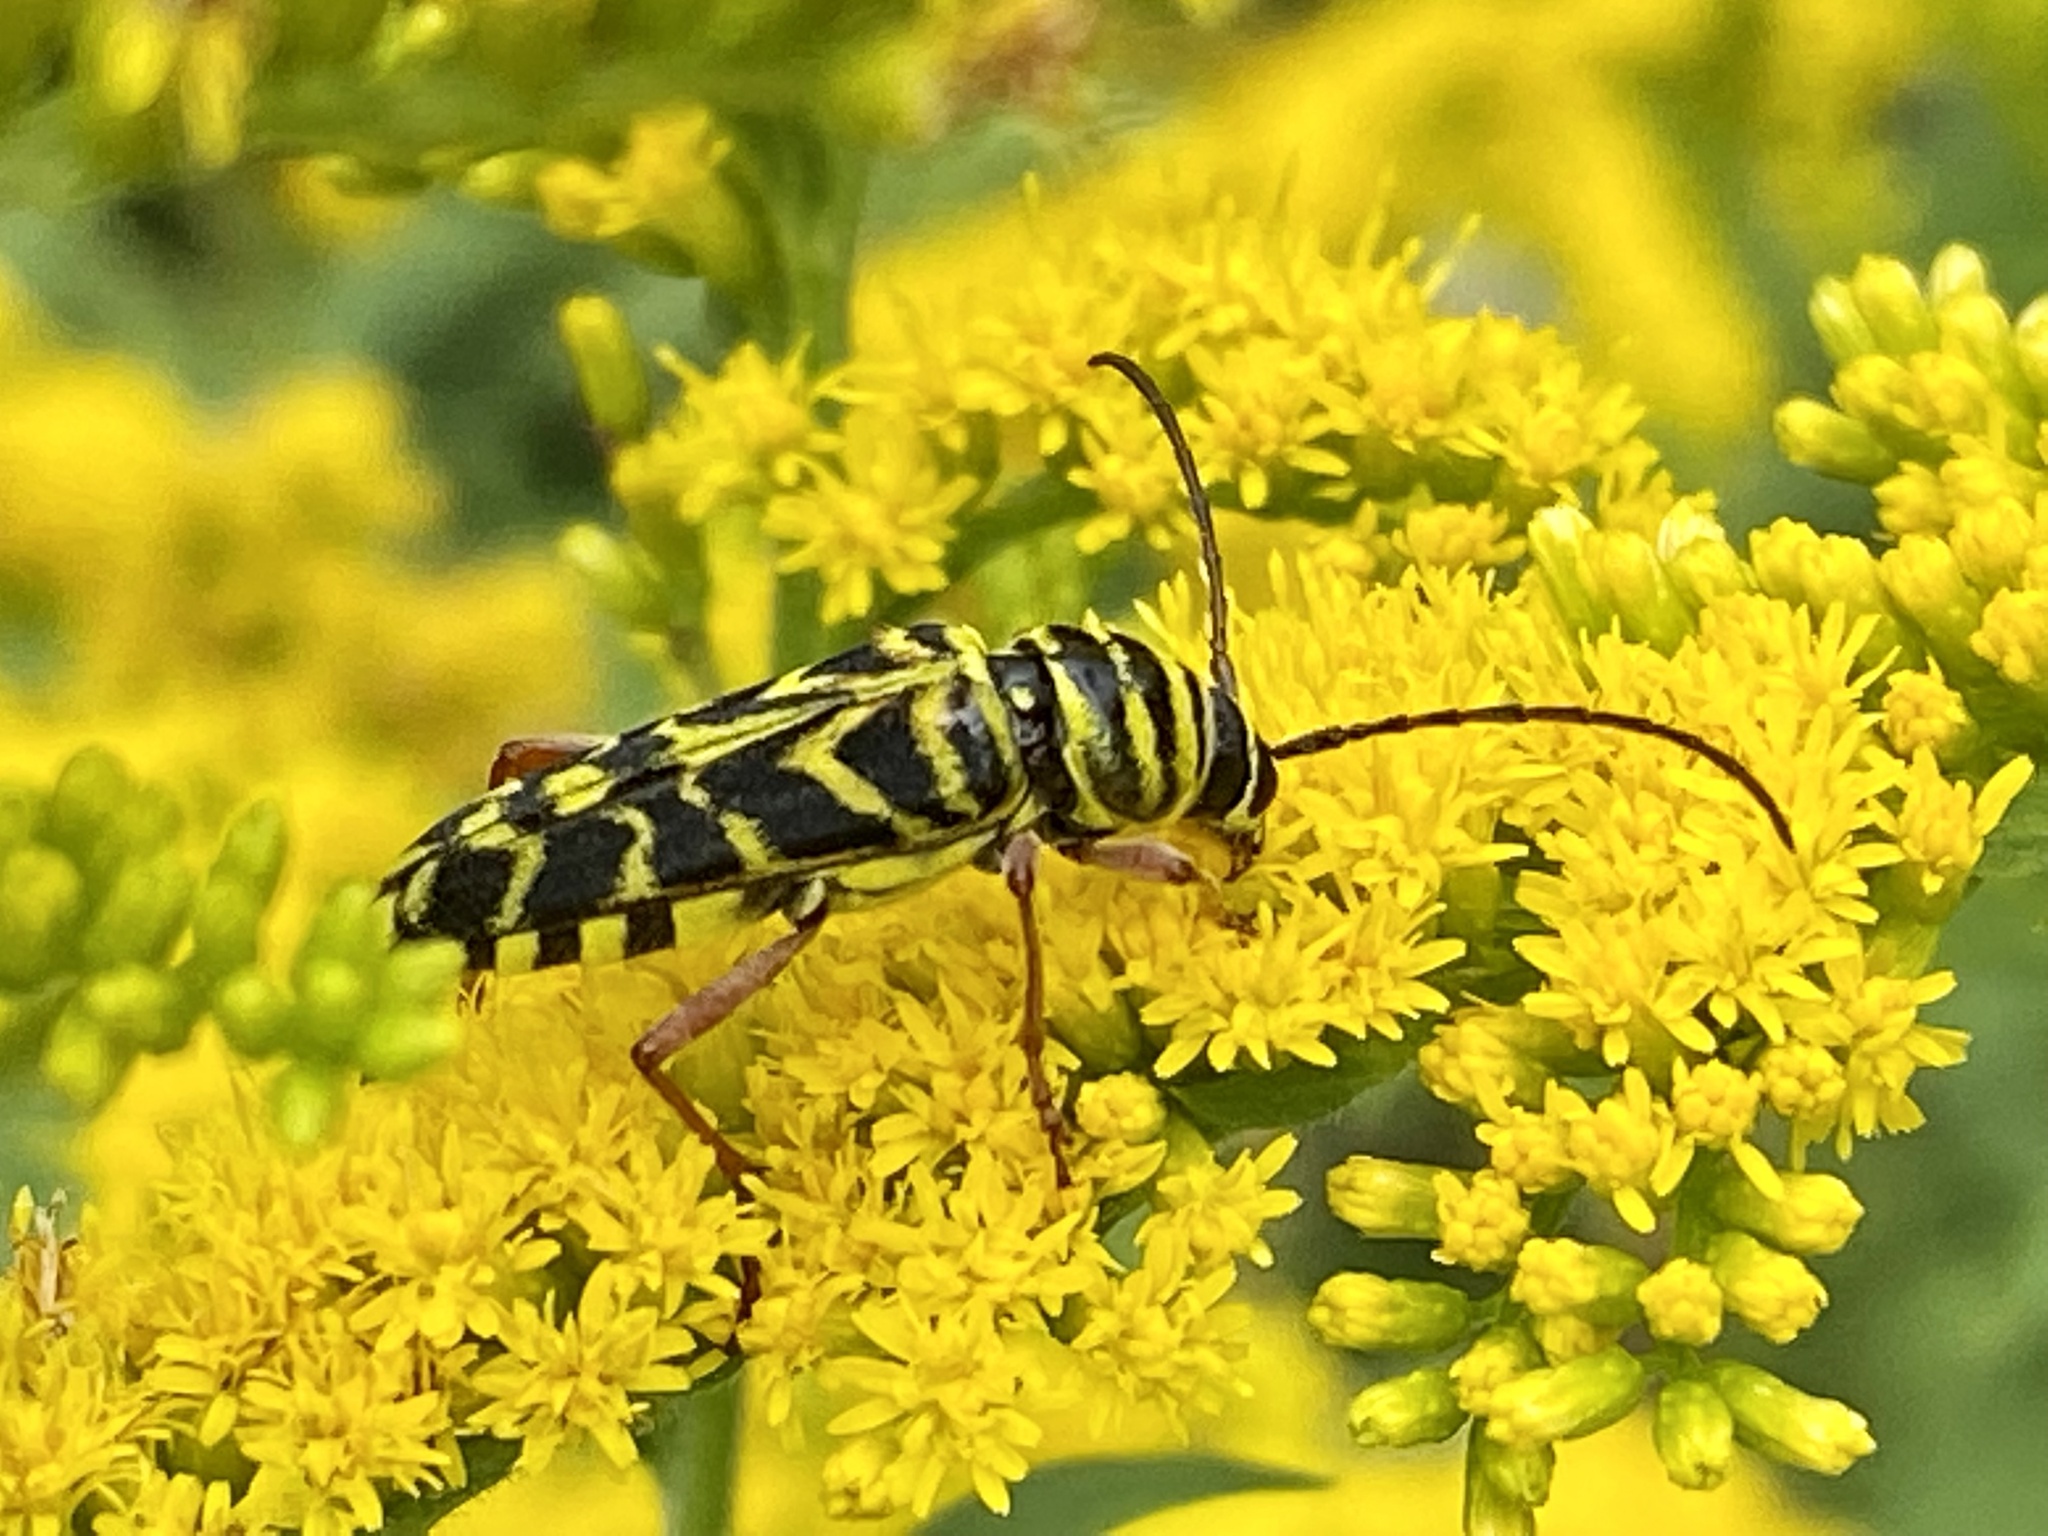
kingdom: Animalia
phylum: Arthropoda
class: Insecta
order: Coleoptera
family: Cerambycidae
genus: Megacyllene
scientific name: Megacyllene robiniae
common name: Locust borer
